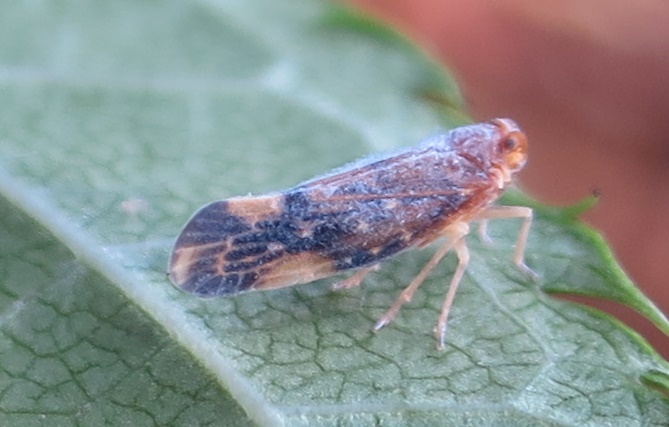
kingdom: Animalia
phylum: Arthropoda
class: Insecta
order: Hemiptera
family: Derbidae
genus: Eocenchrea
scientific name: Eocenchrea maorica
